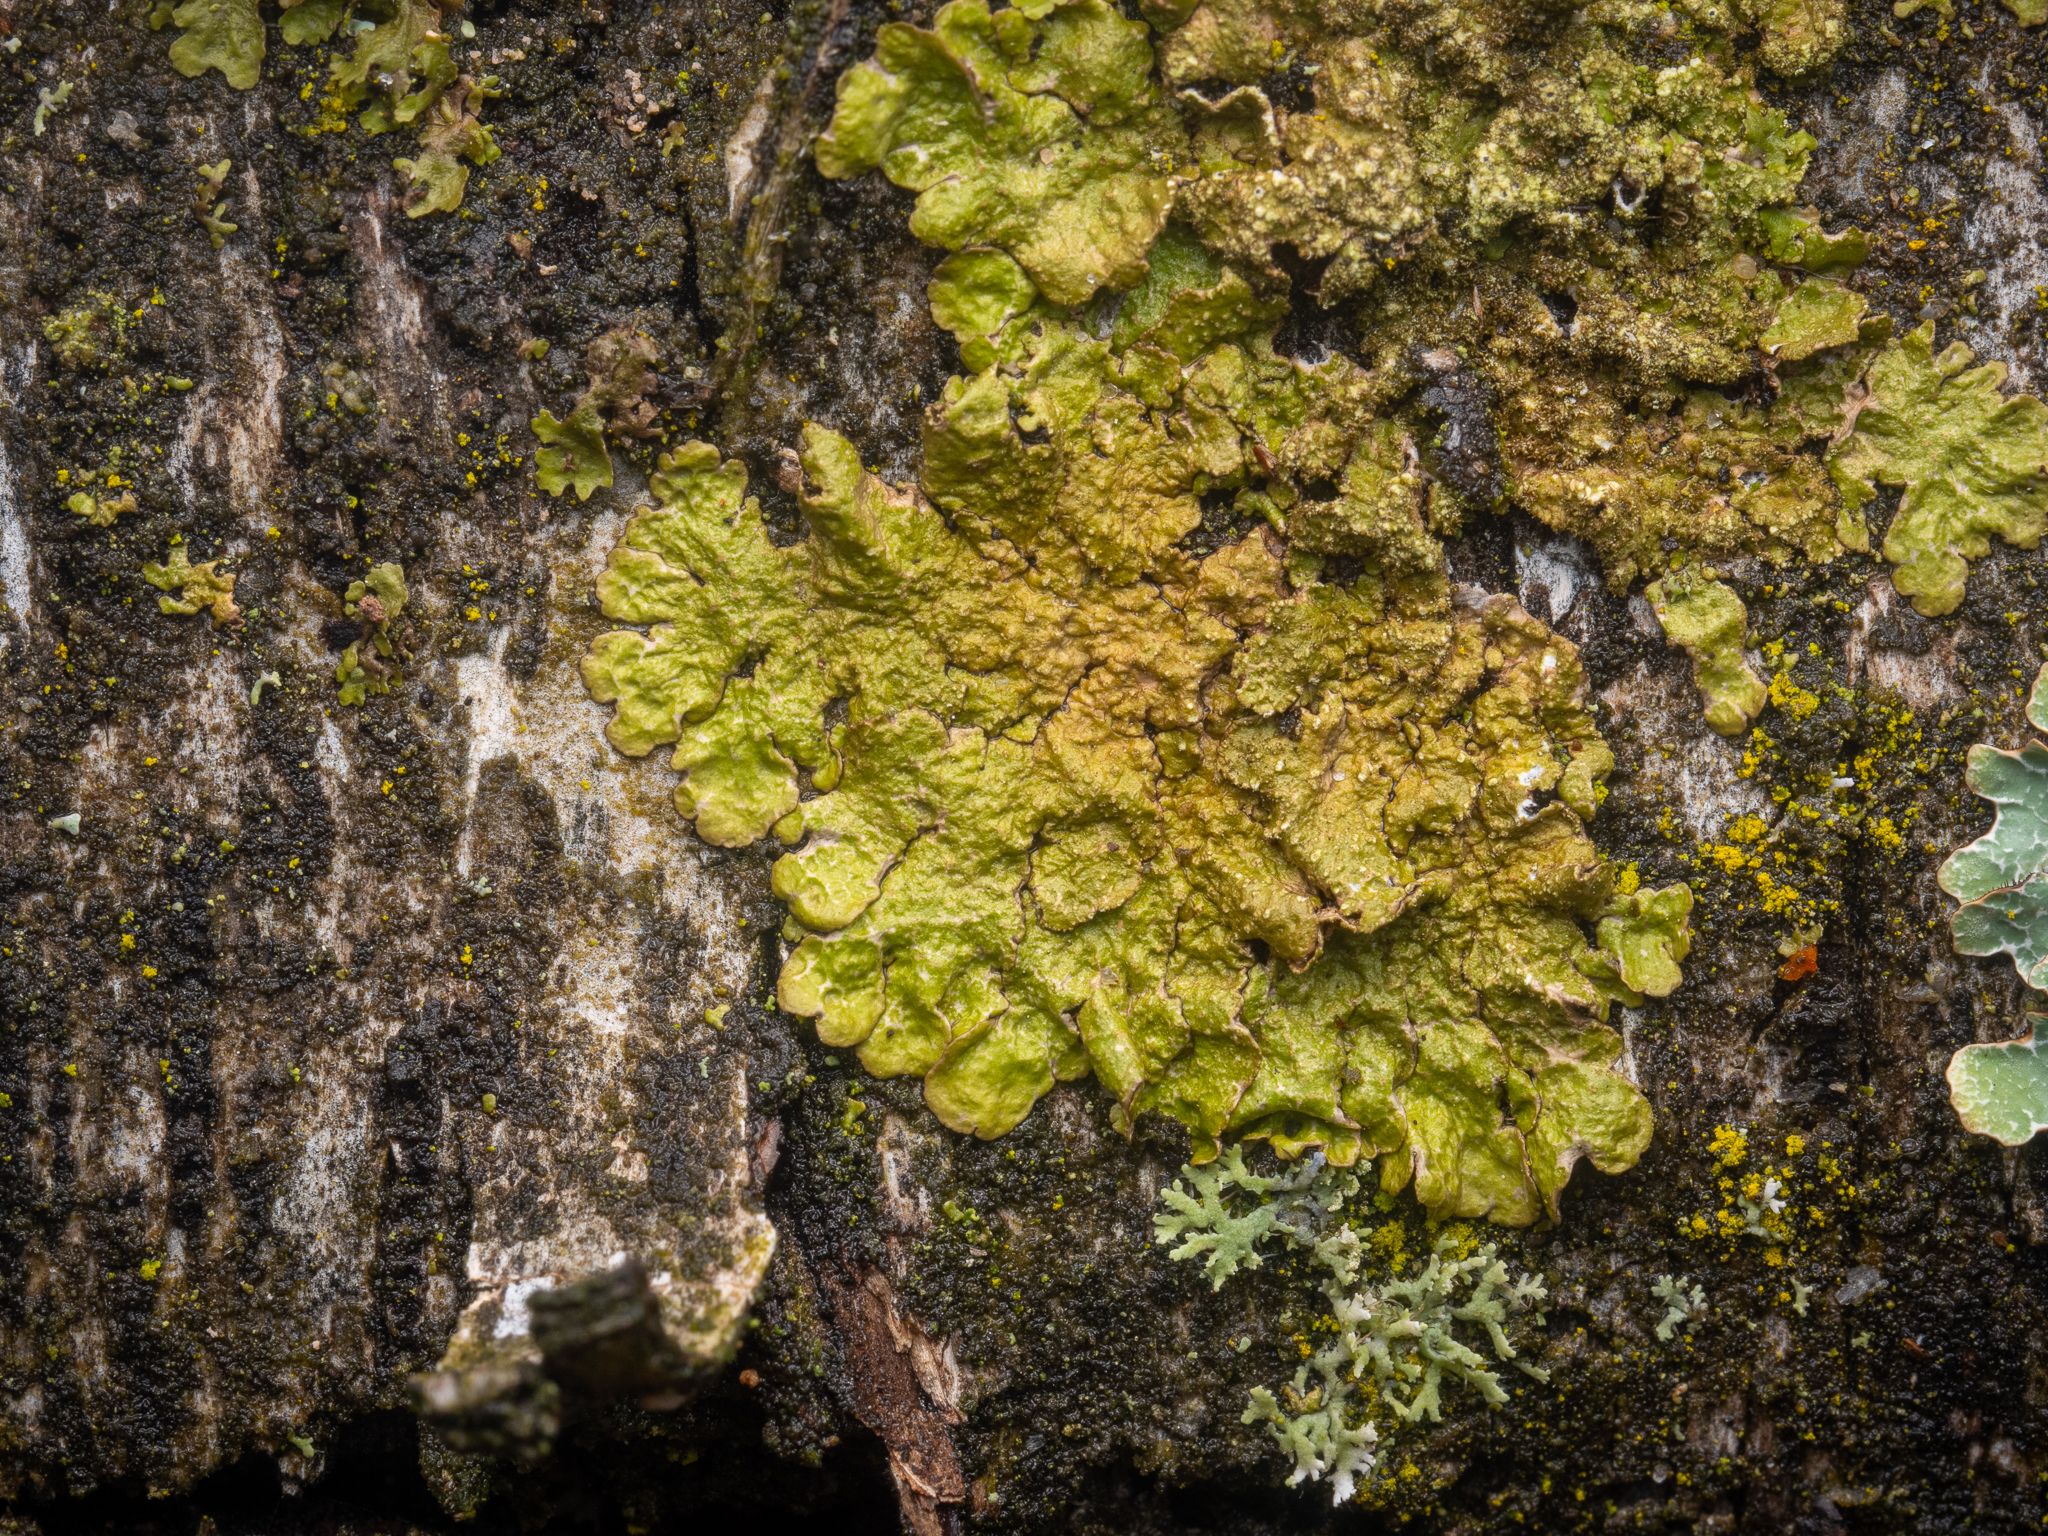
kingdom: Fungi
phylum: Ascomycota
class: Lecanoromycetes
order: Lecanorales
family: Parmeliaceae
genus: Melanelixia
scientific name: Melanelixia subaurifera
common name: Abraded camouflage lichen
